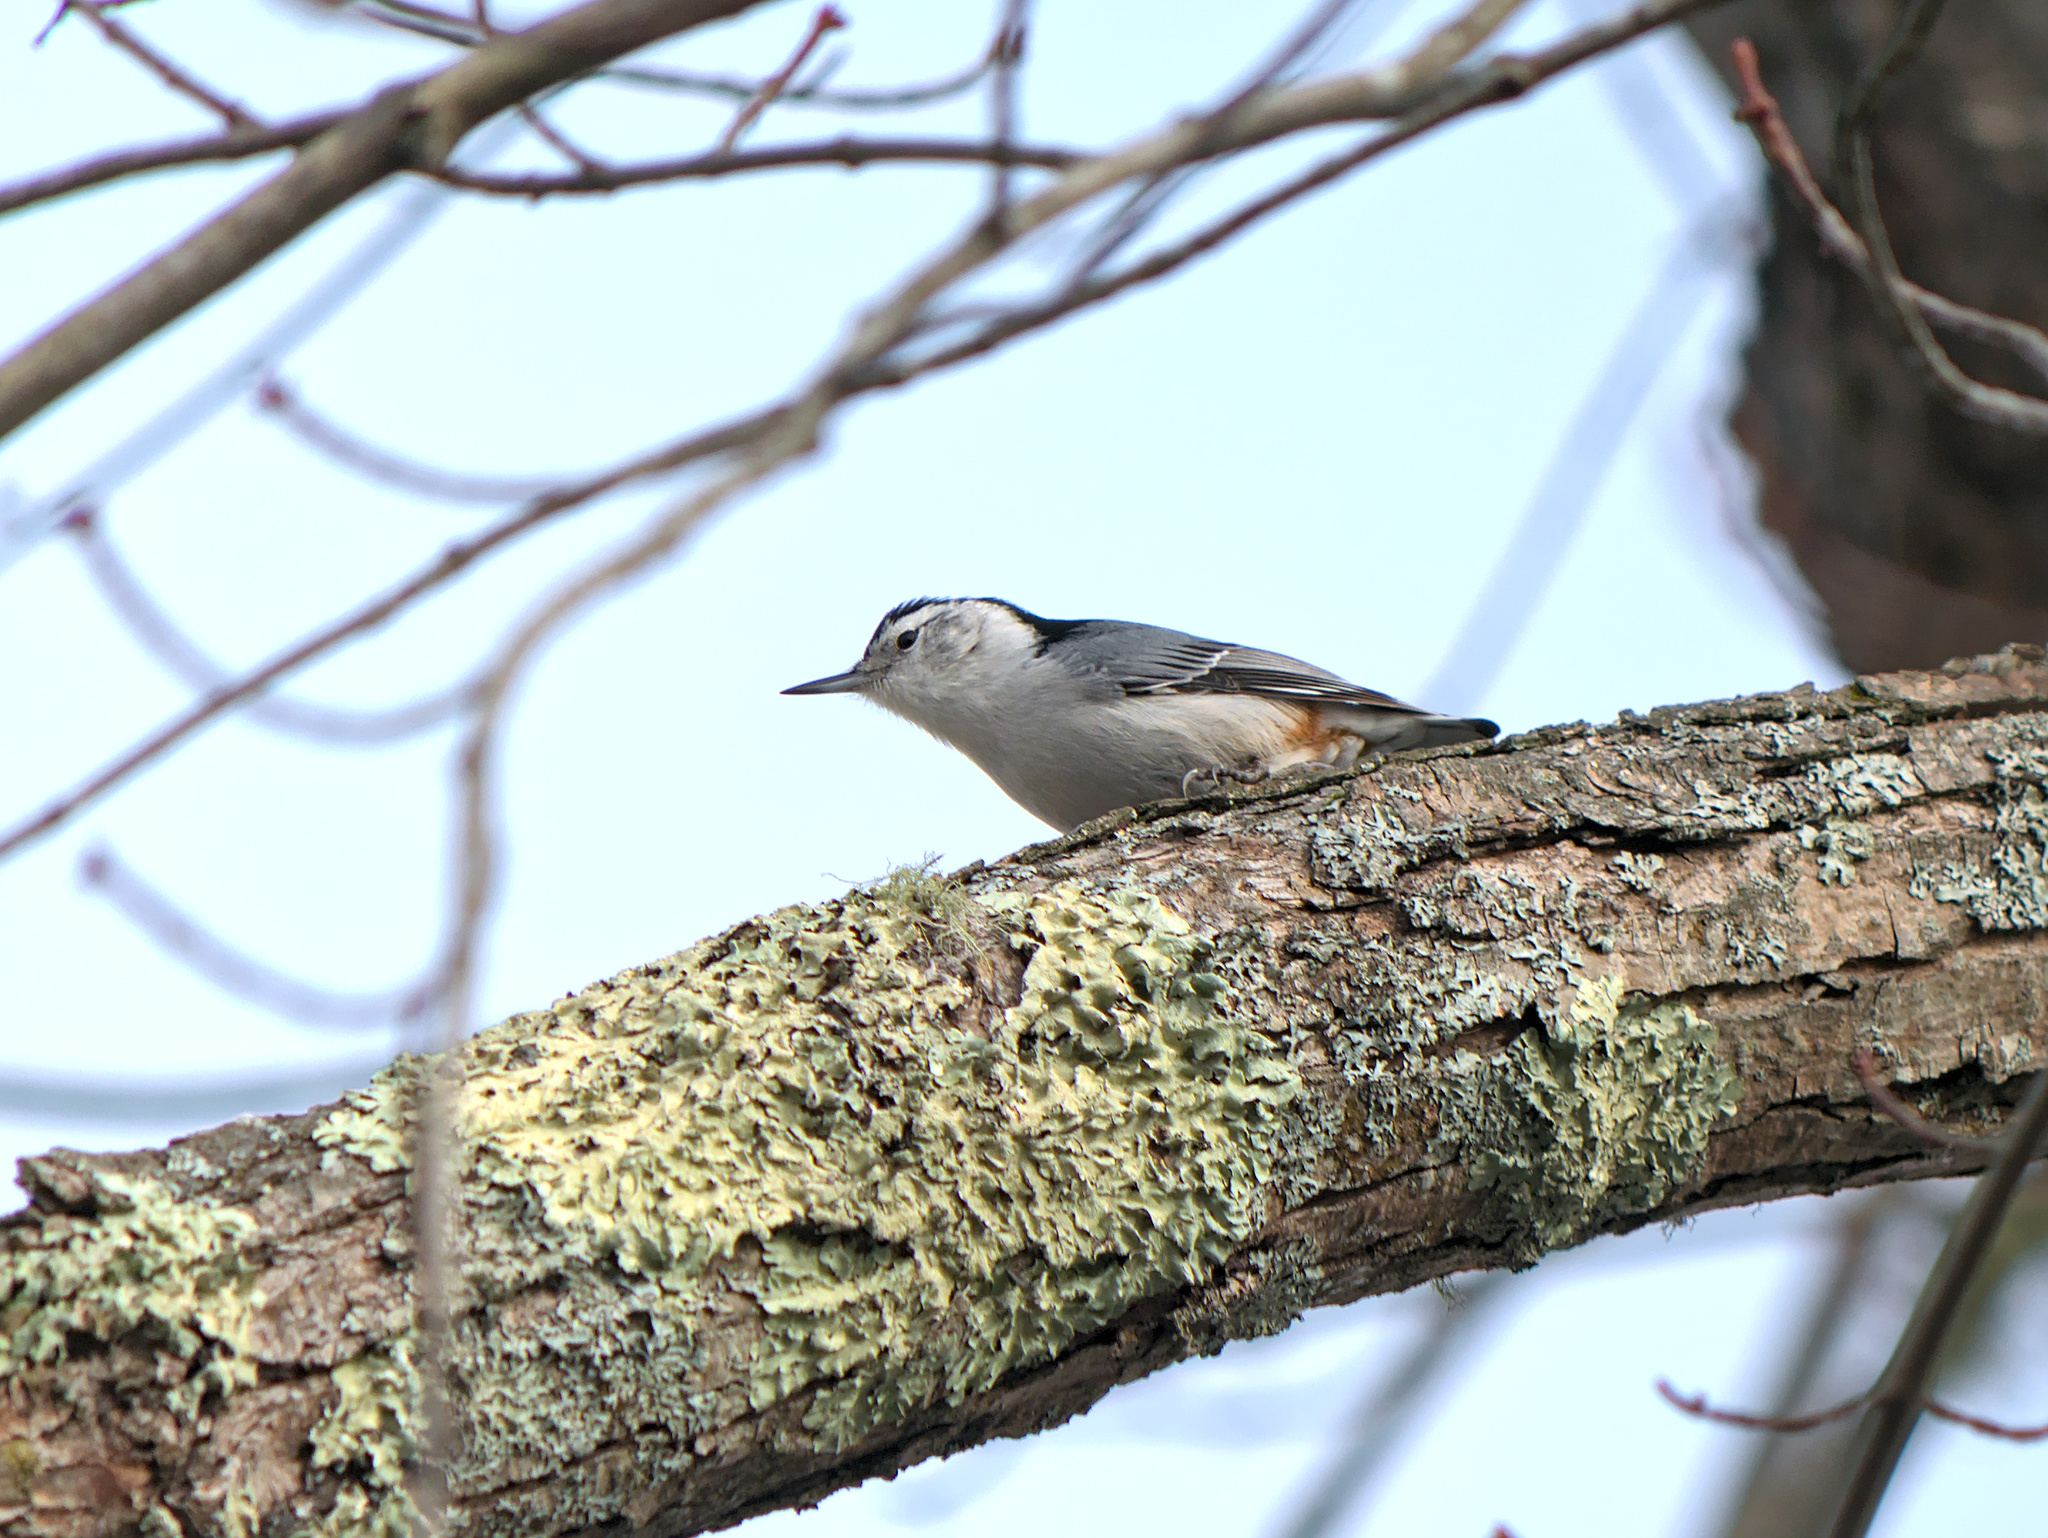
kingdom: Animalia
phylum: Chordata
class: Aves
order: Passeriformes
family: Sittidae
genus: Sitta
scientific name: Sitta carolinensis
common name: White-breasted nuthatch
